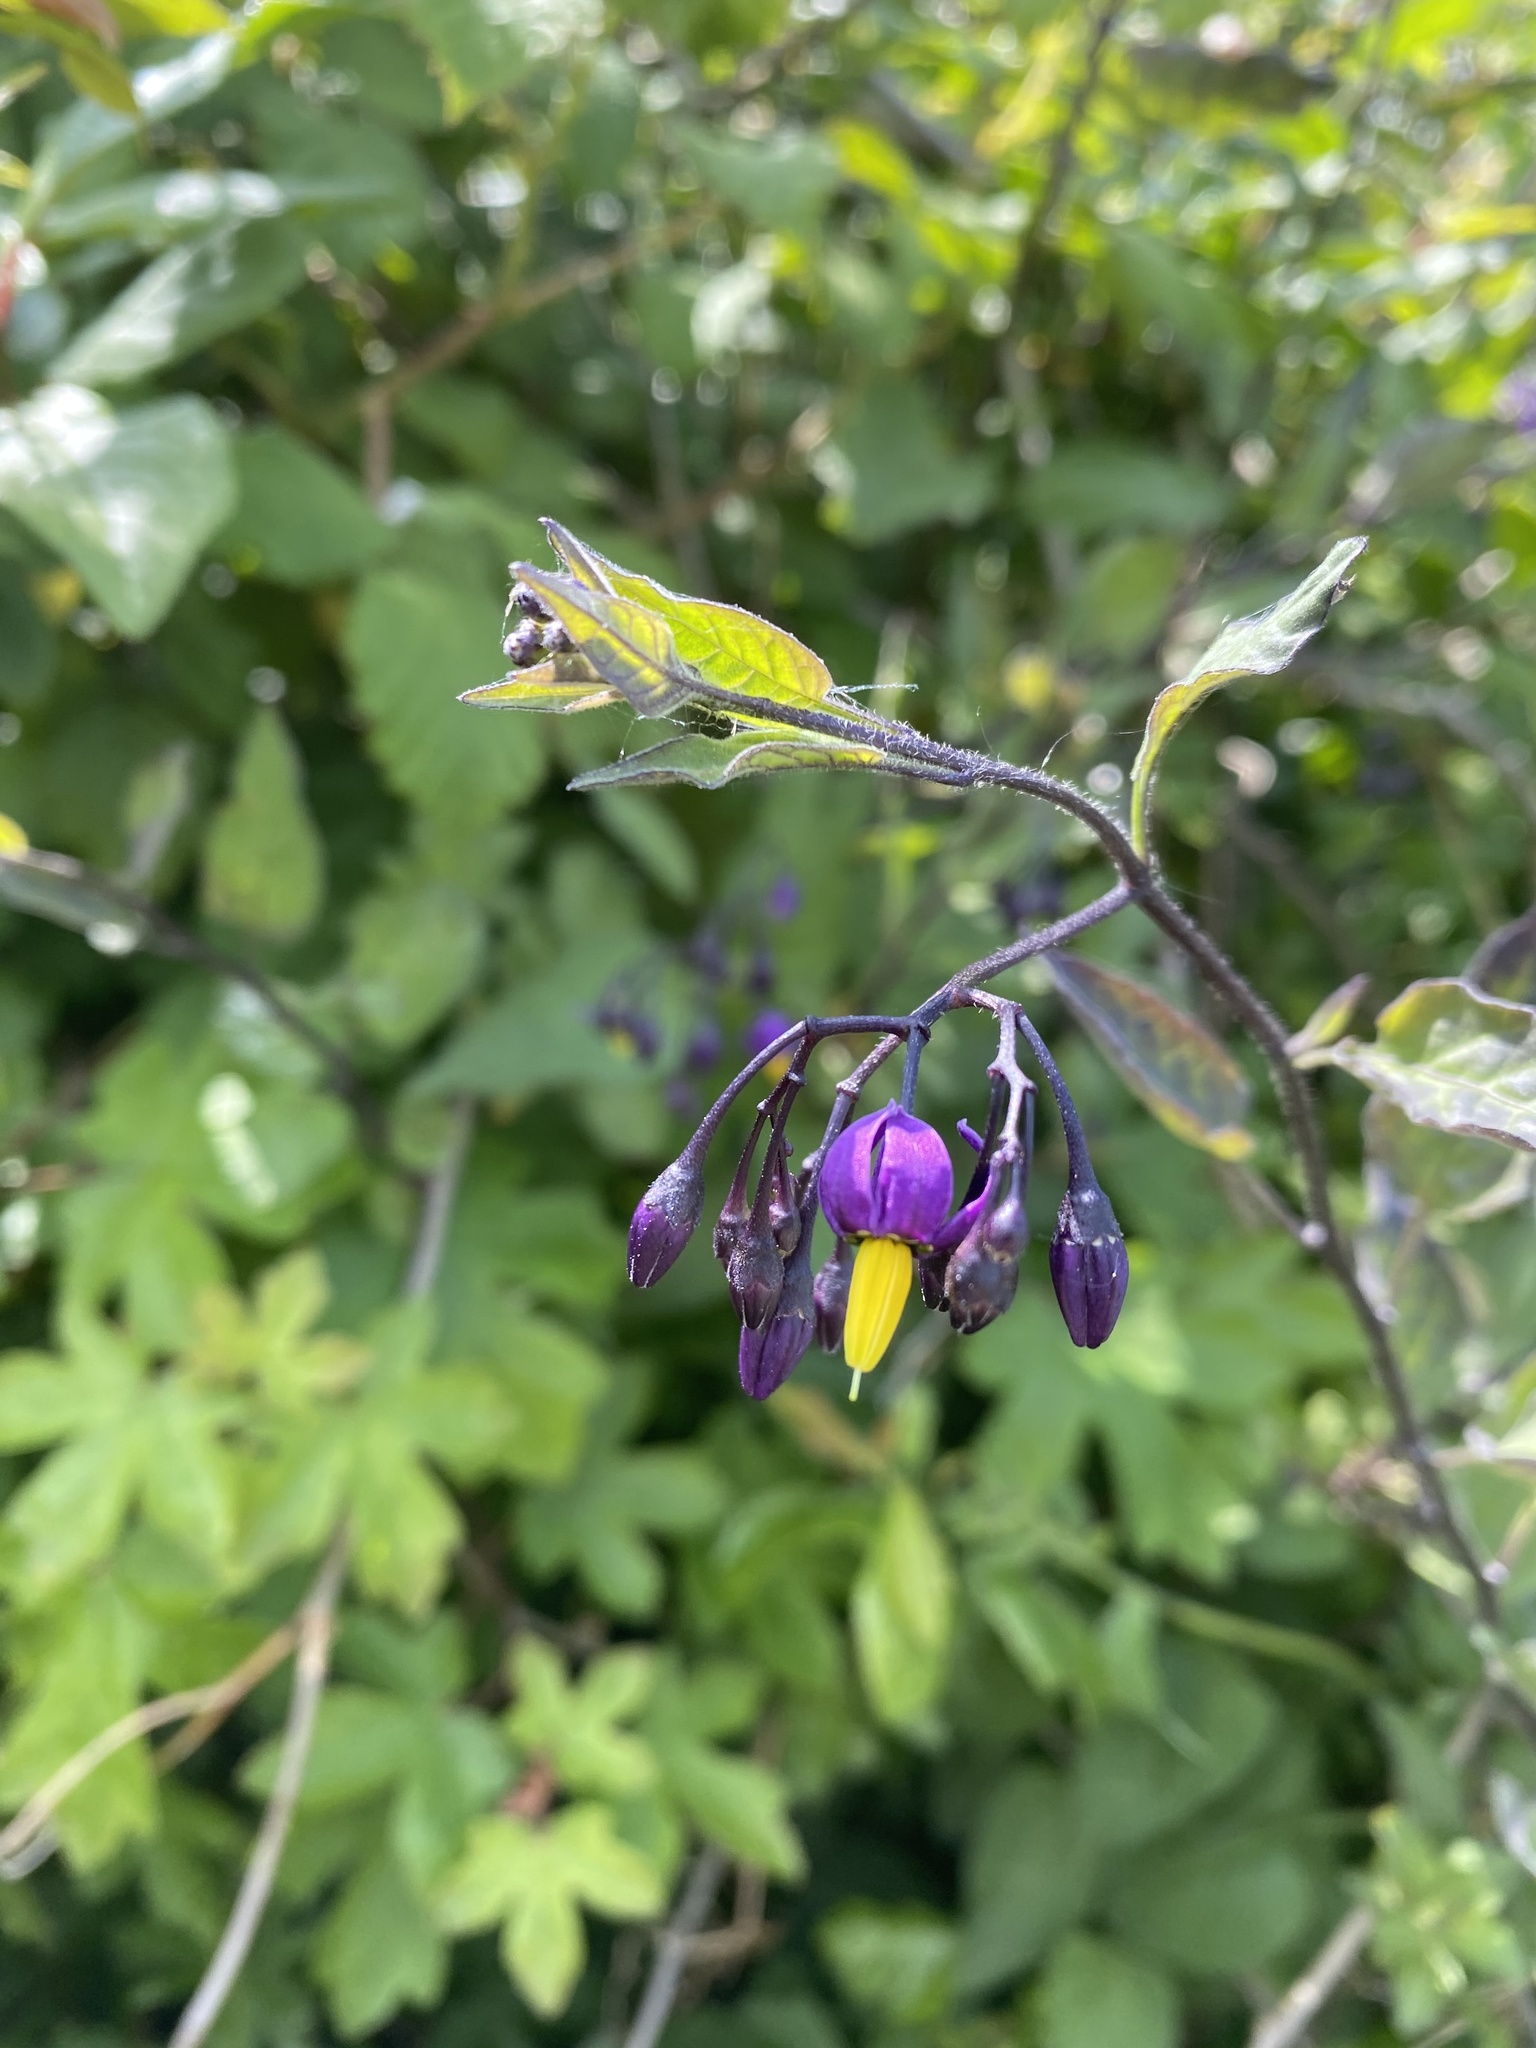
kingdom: Plantae
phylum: Tracheophyta
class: Magnoliopsida
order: Solanales
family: Solanaceae
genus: Solanum
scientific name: Solanum dulcamara
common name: Climbing nightshade
